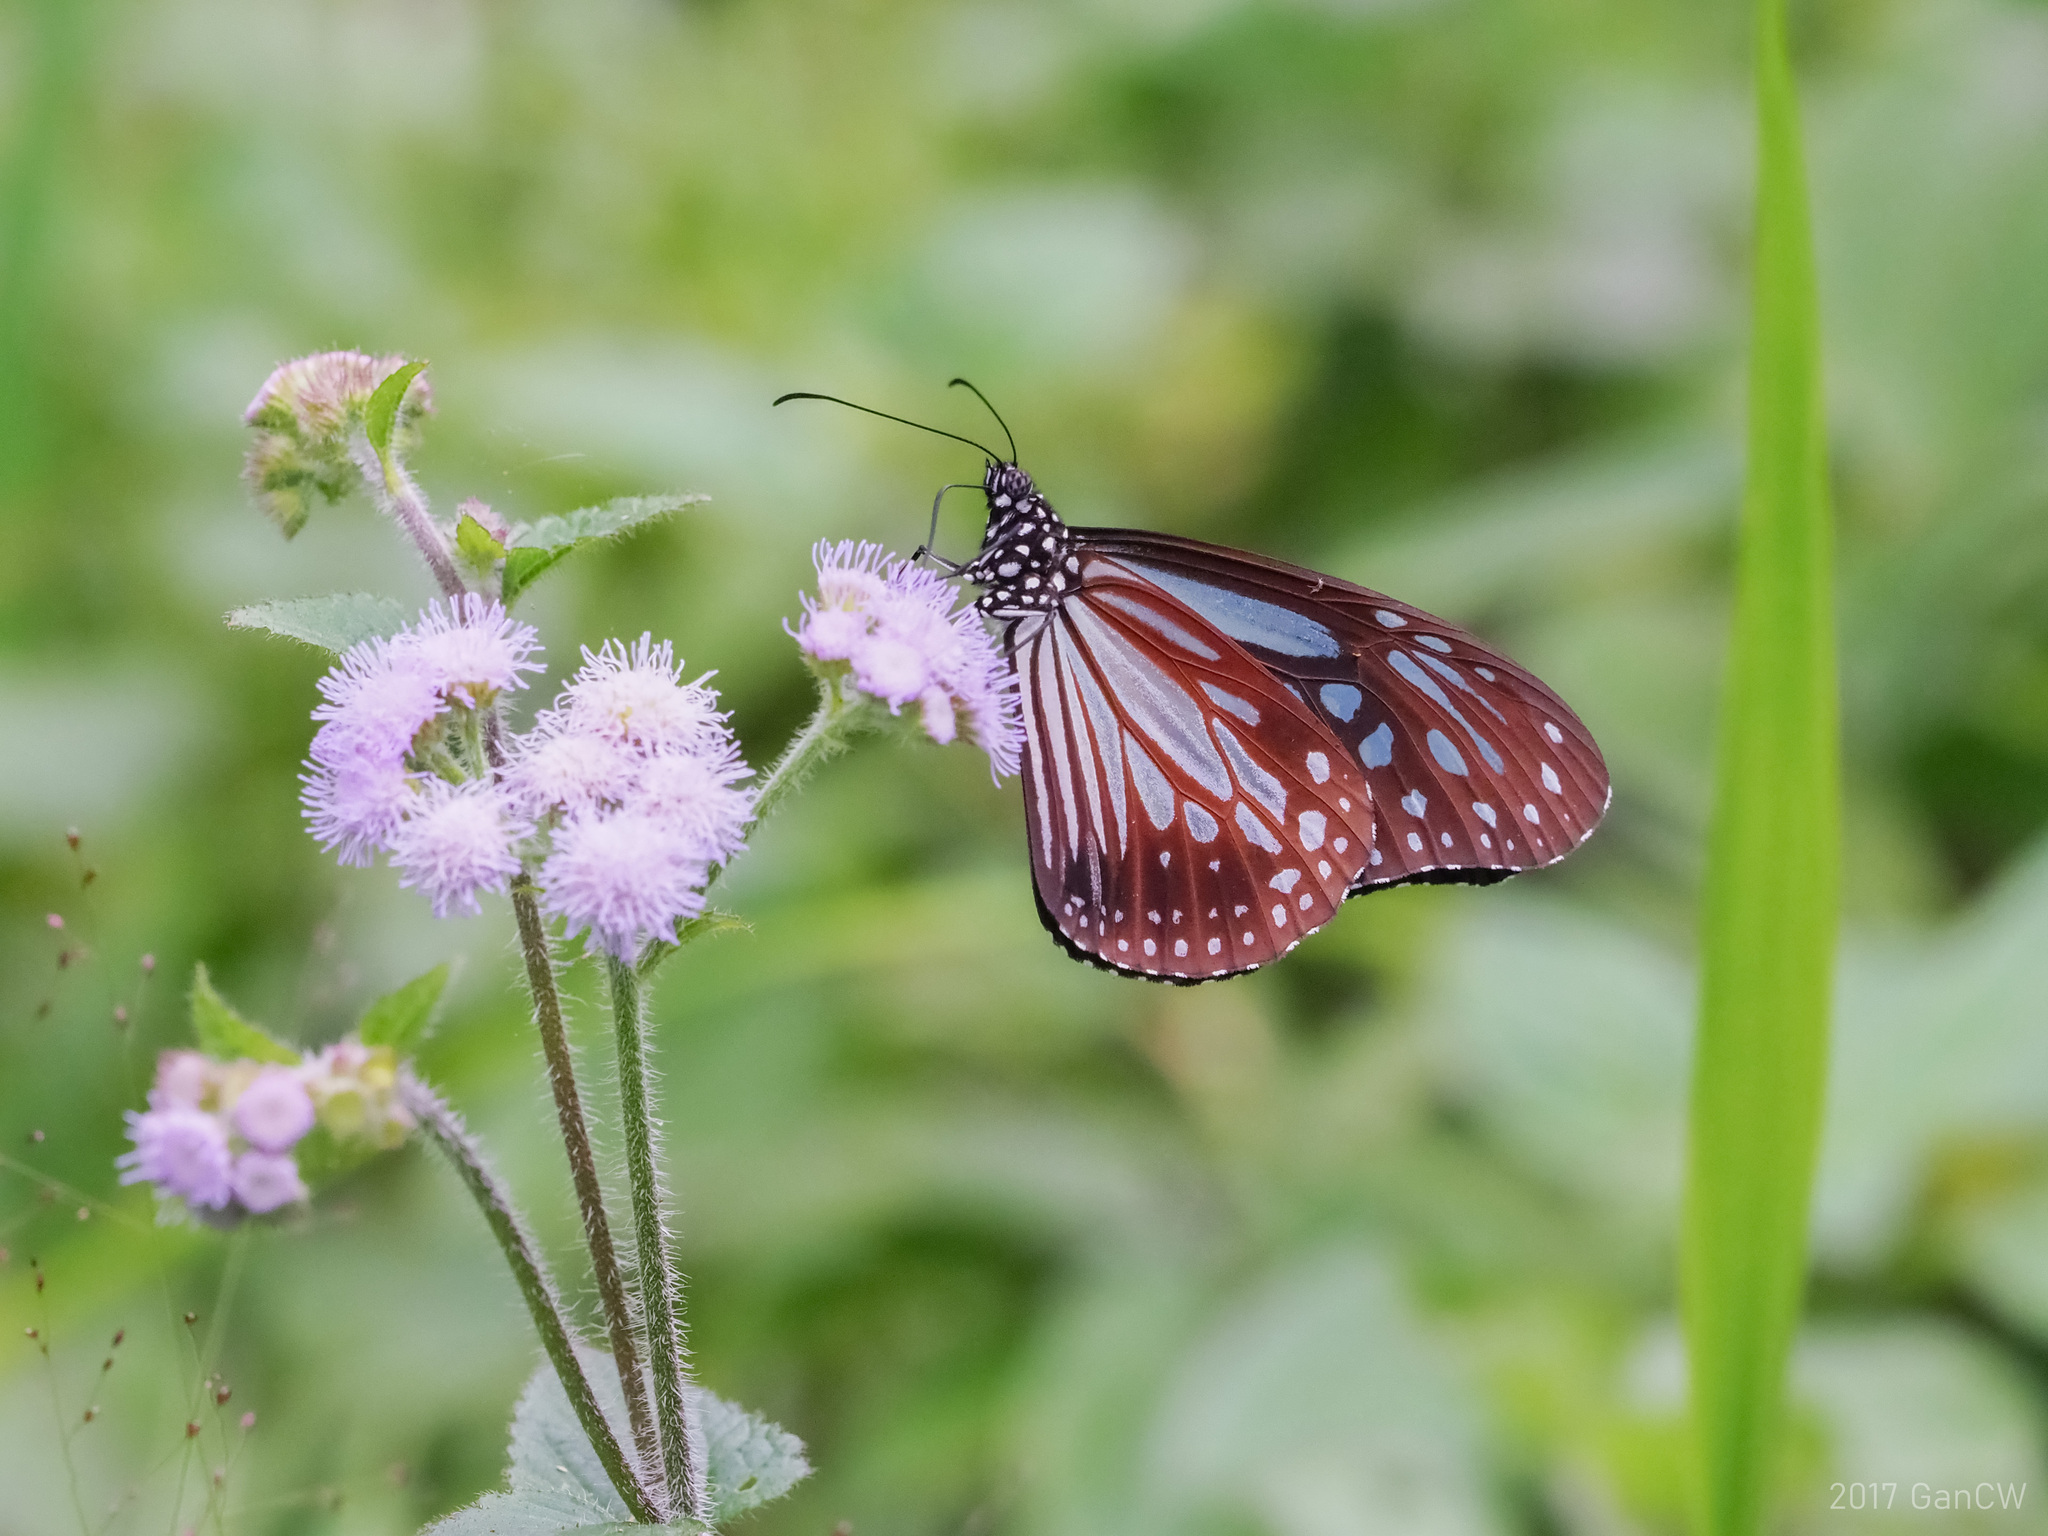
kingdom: Animalia
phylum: Arthropoda
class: Insecta
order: Lepidoptera
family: Nymphalidae
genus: Parantica
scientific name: Parantica melaneus
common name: Chocolate tiger
